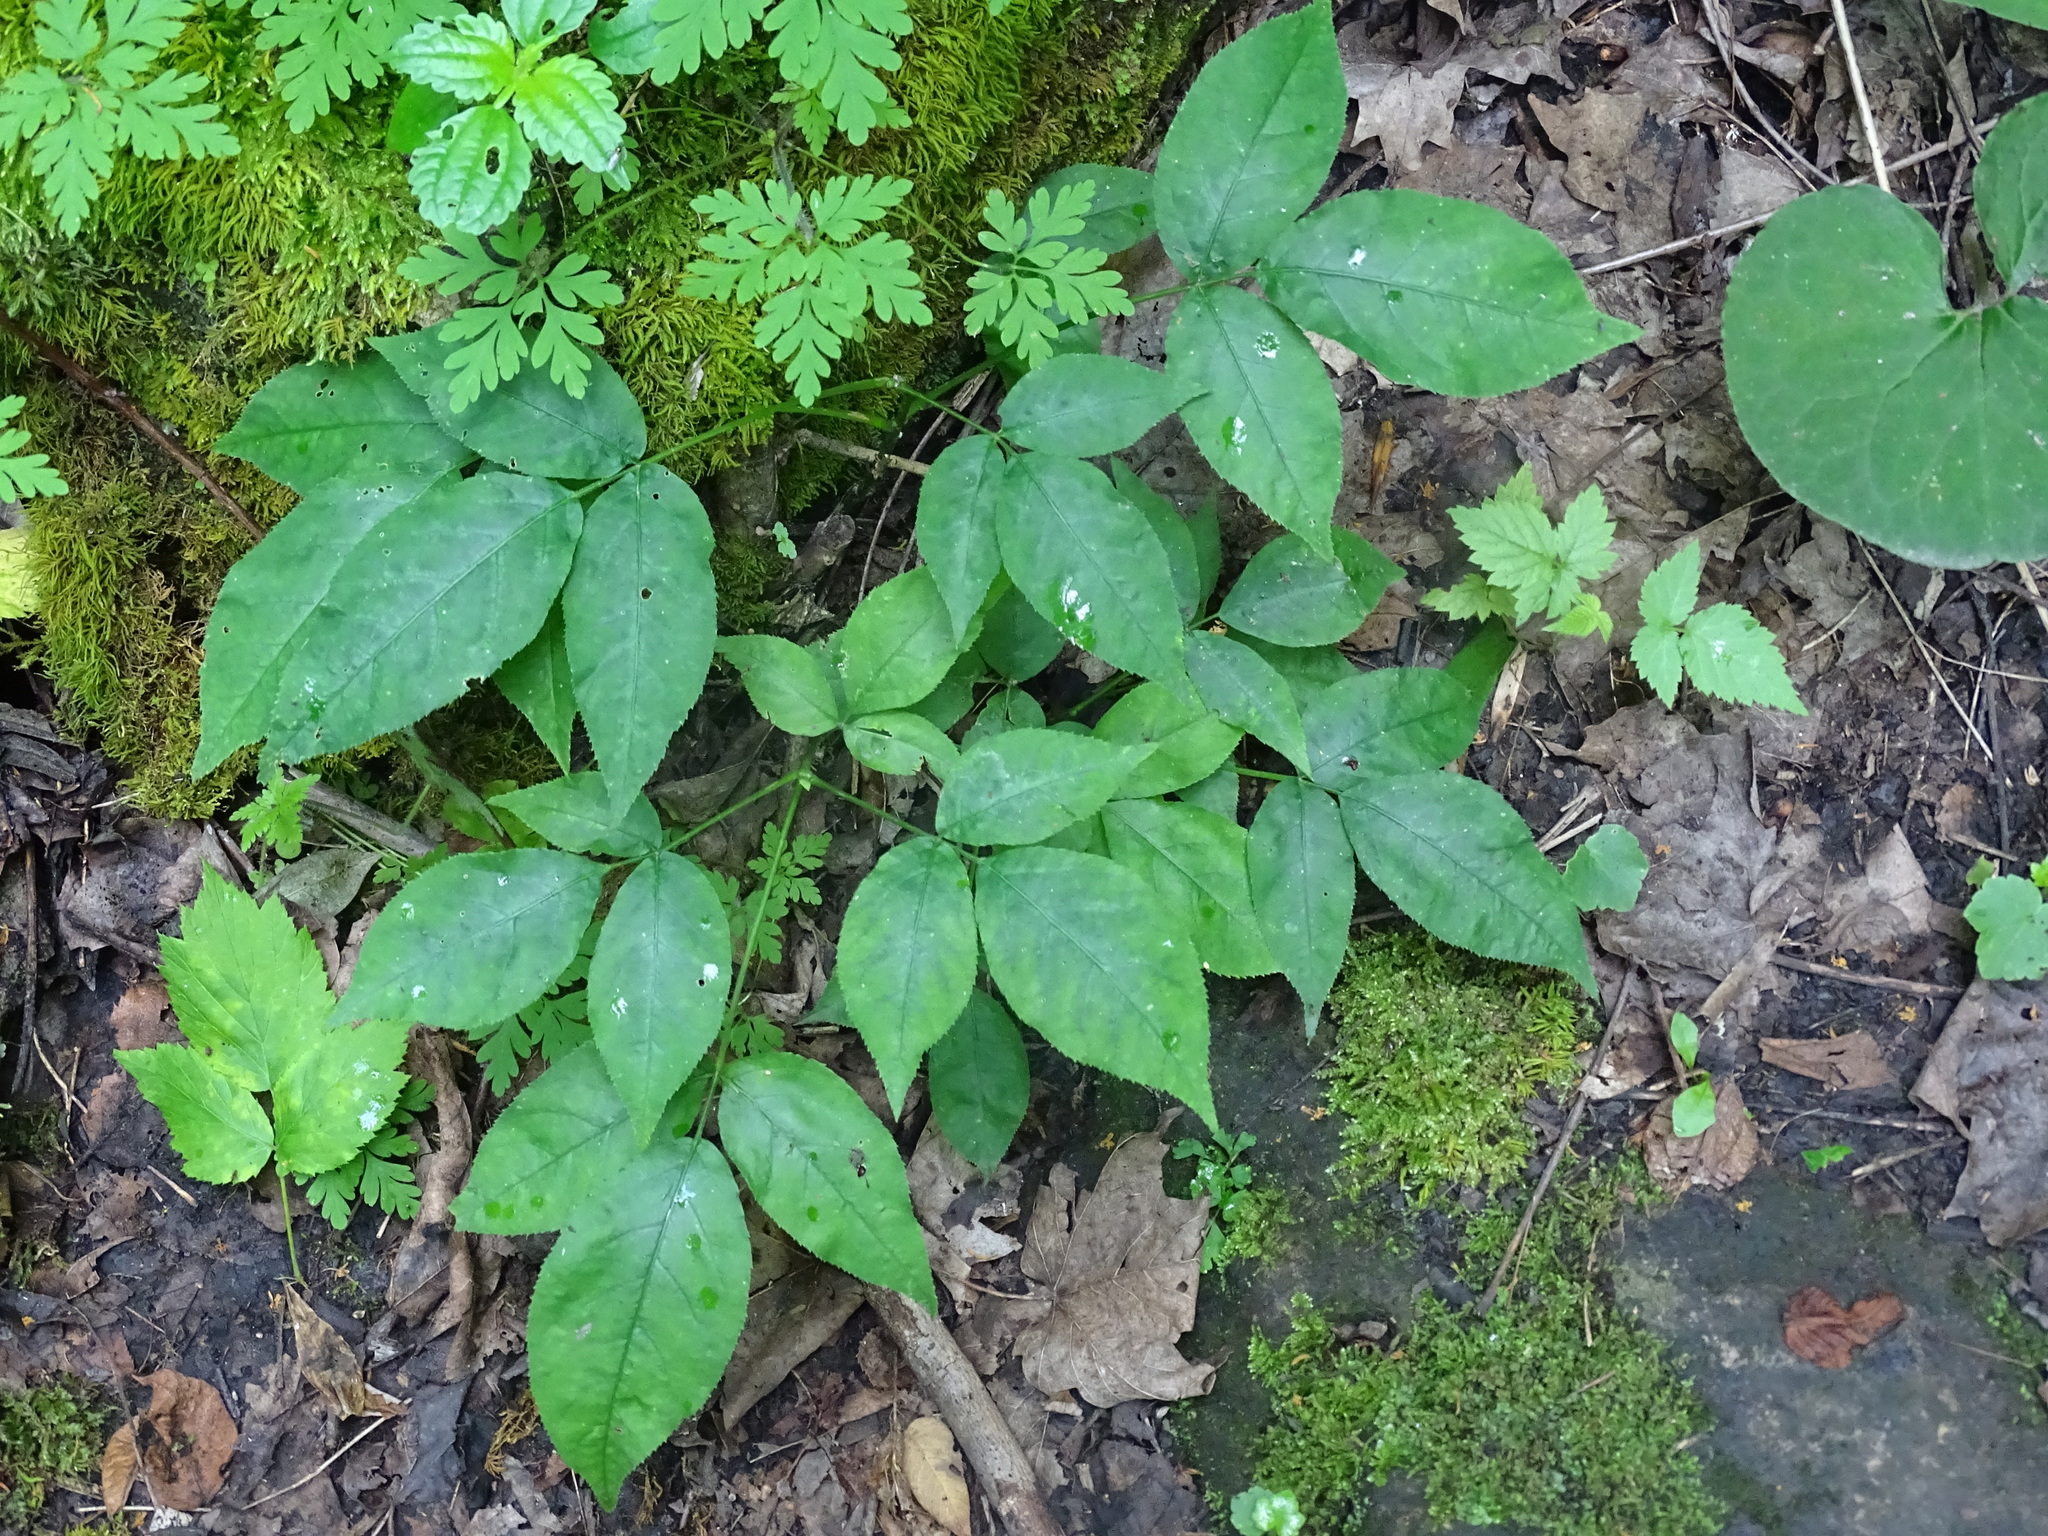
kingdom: Plantae
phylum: Tracheophyta
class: Magnoliopsida
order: Crossosomatales
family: Staphyleaceae
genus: Staphylea
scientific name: Staphylea trifolia
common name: American bladdernut
